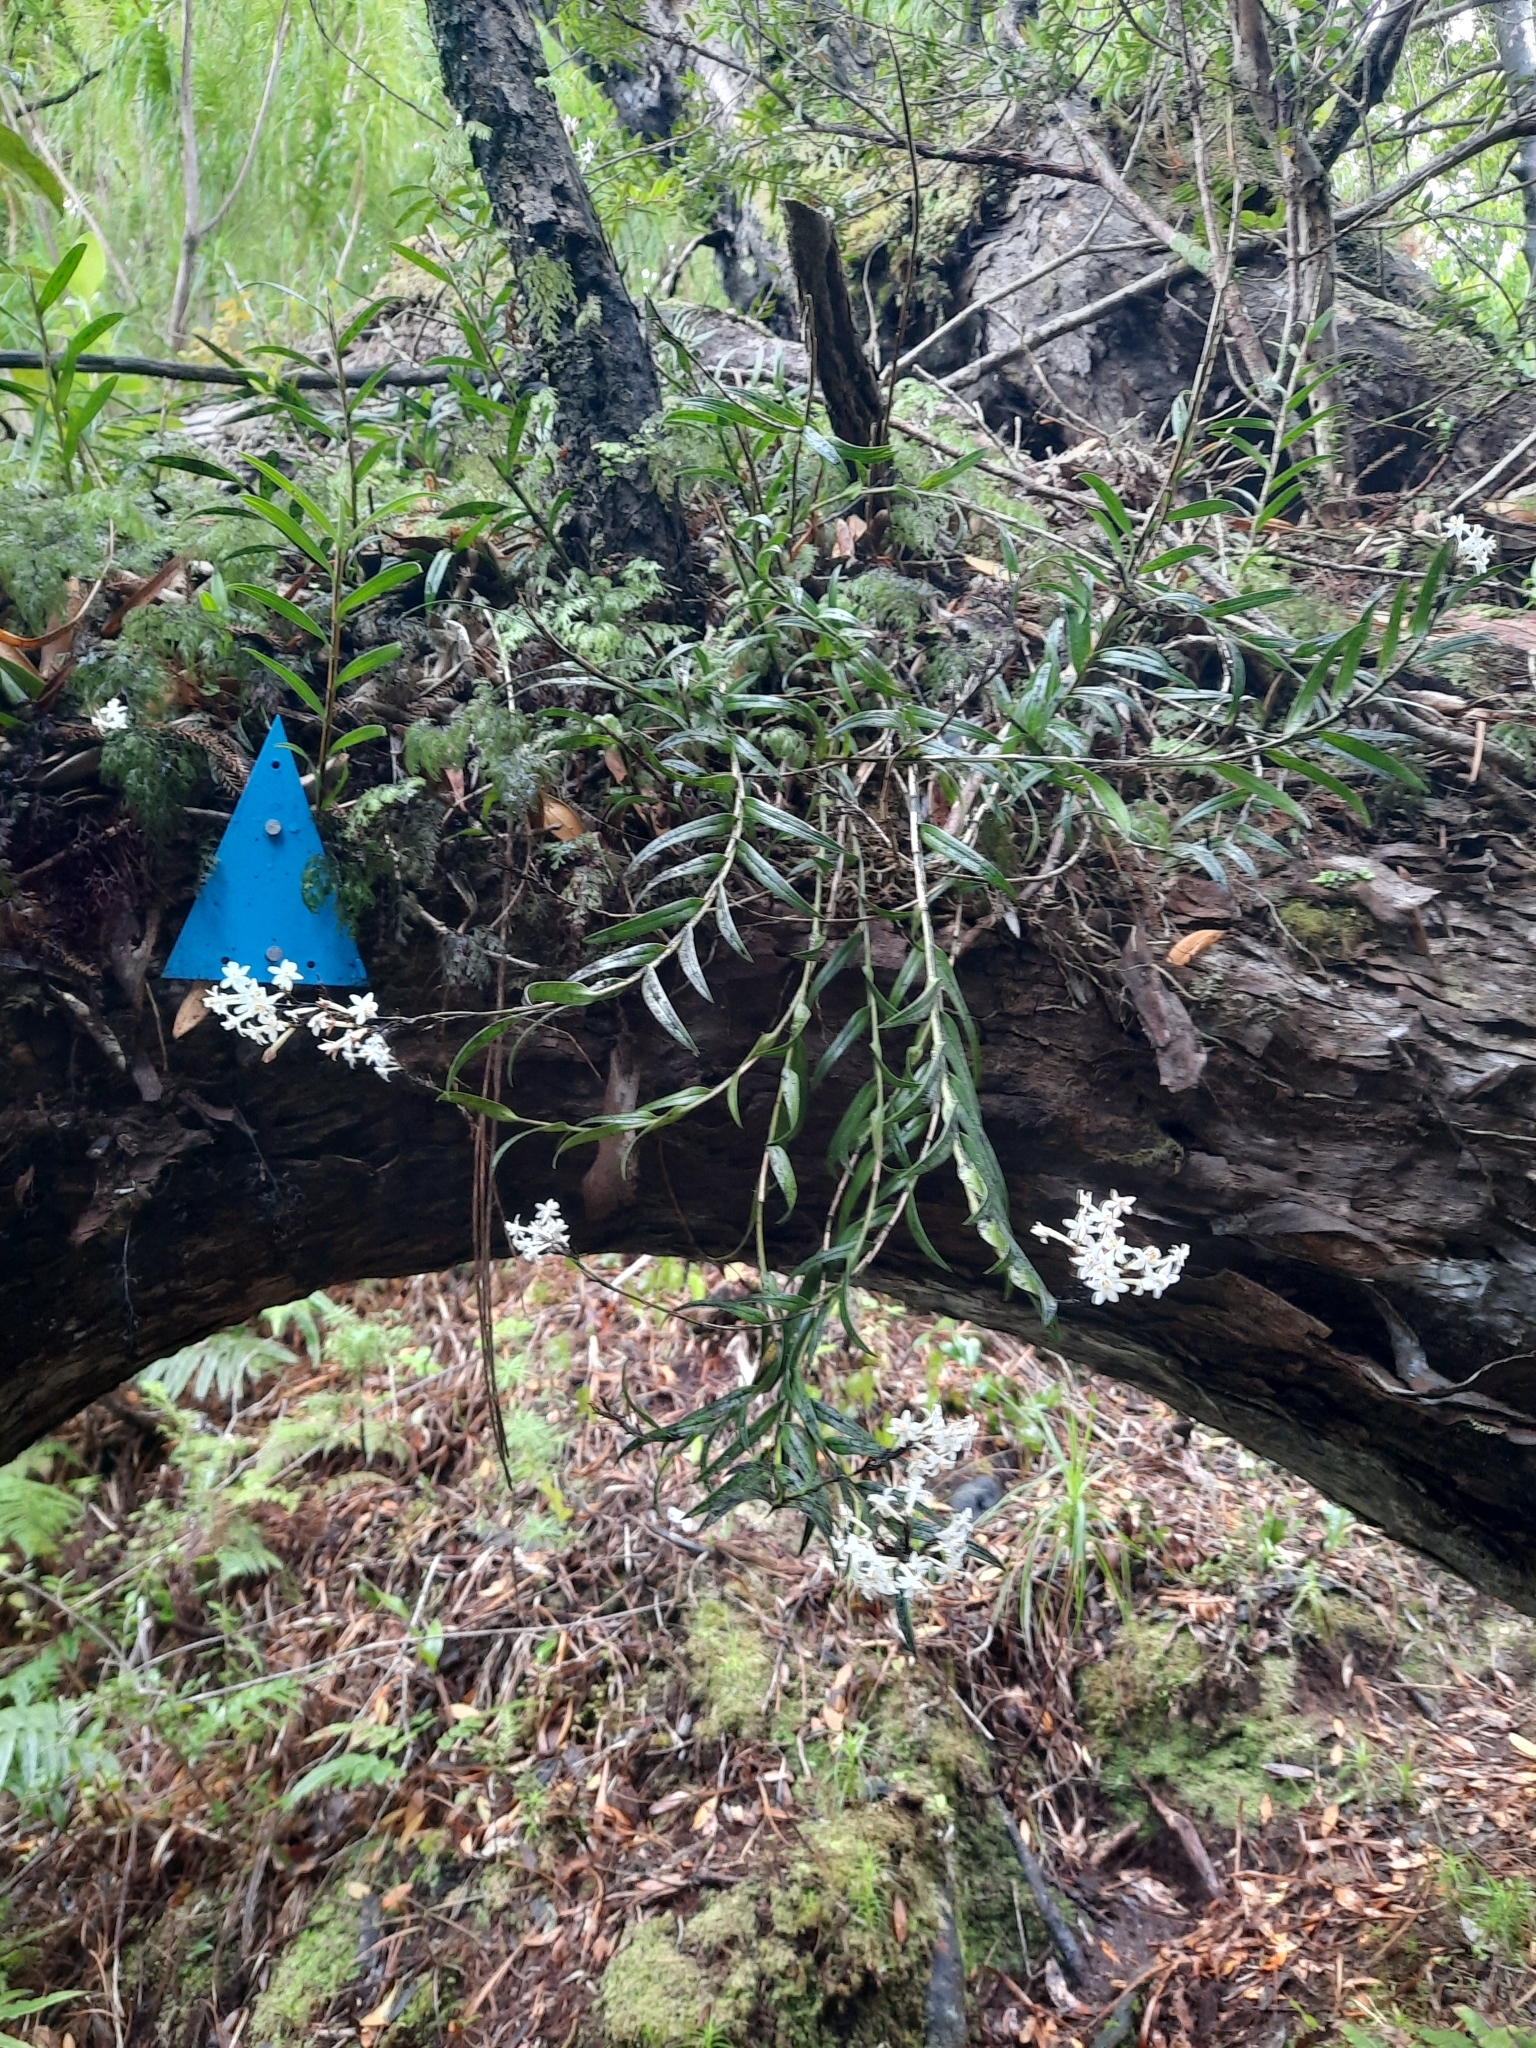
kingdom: Plantae
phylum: Tracheophyta
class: Liliopsida
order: Asparagales
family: Orchidaceae
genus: Earina
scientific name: Earina autumnalis
